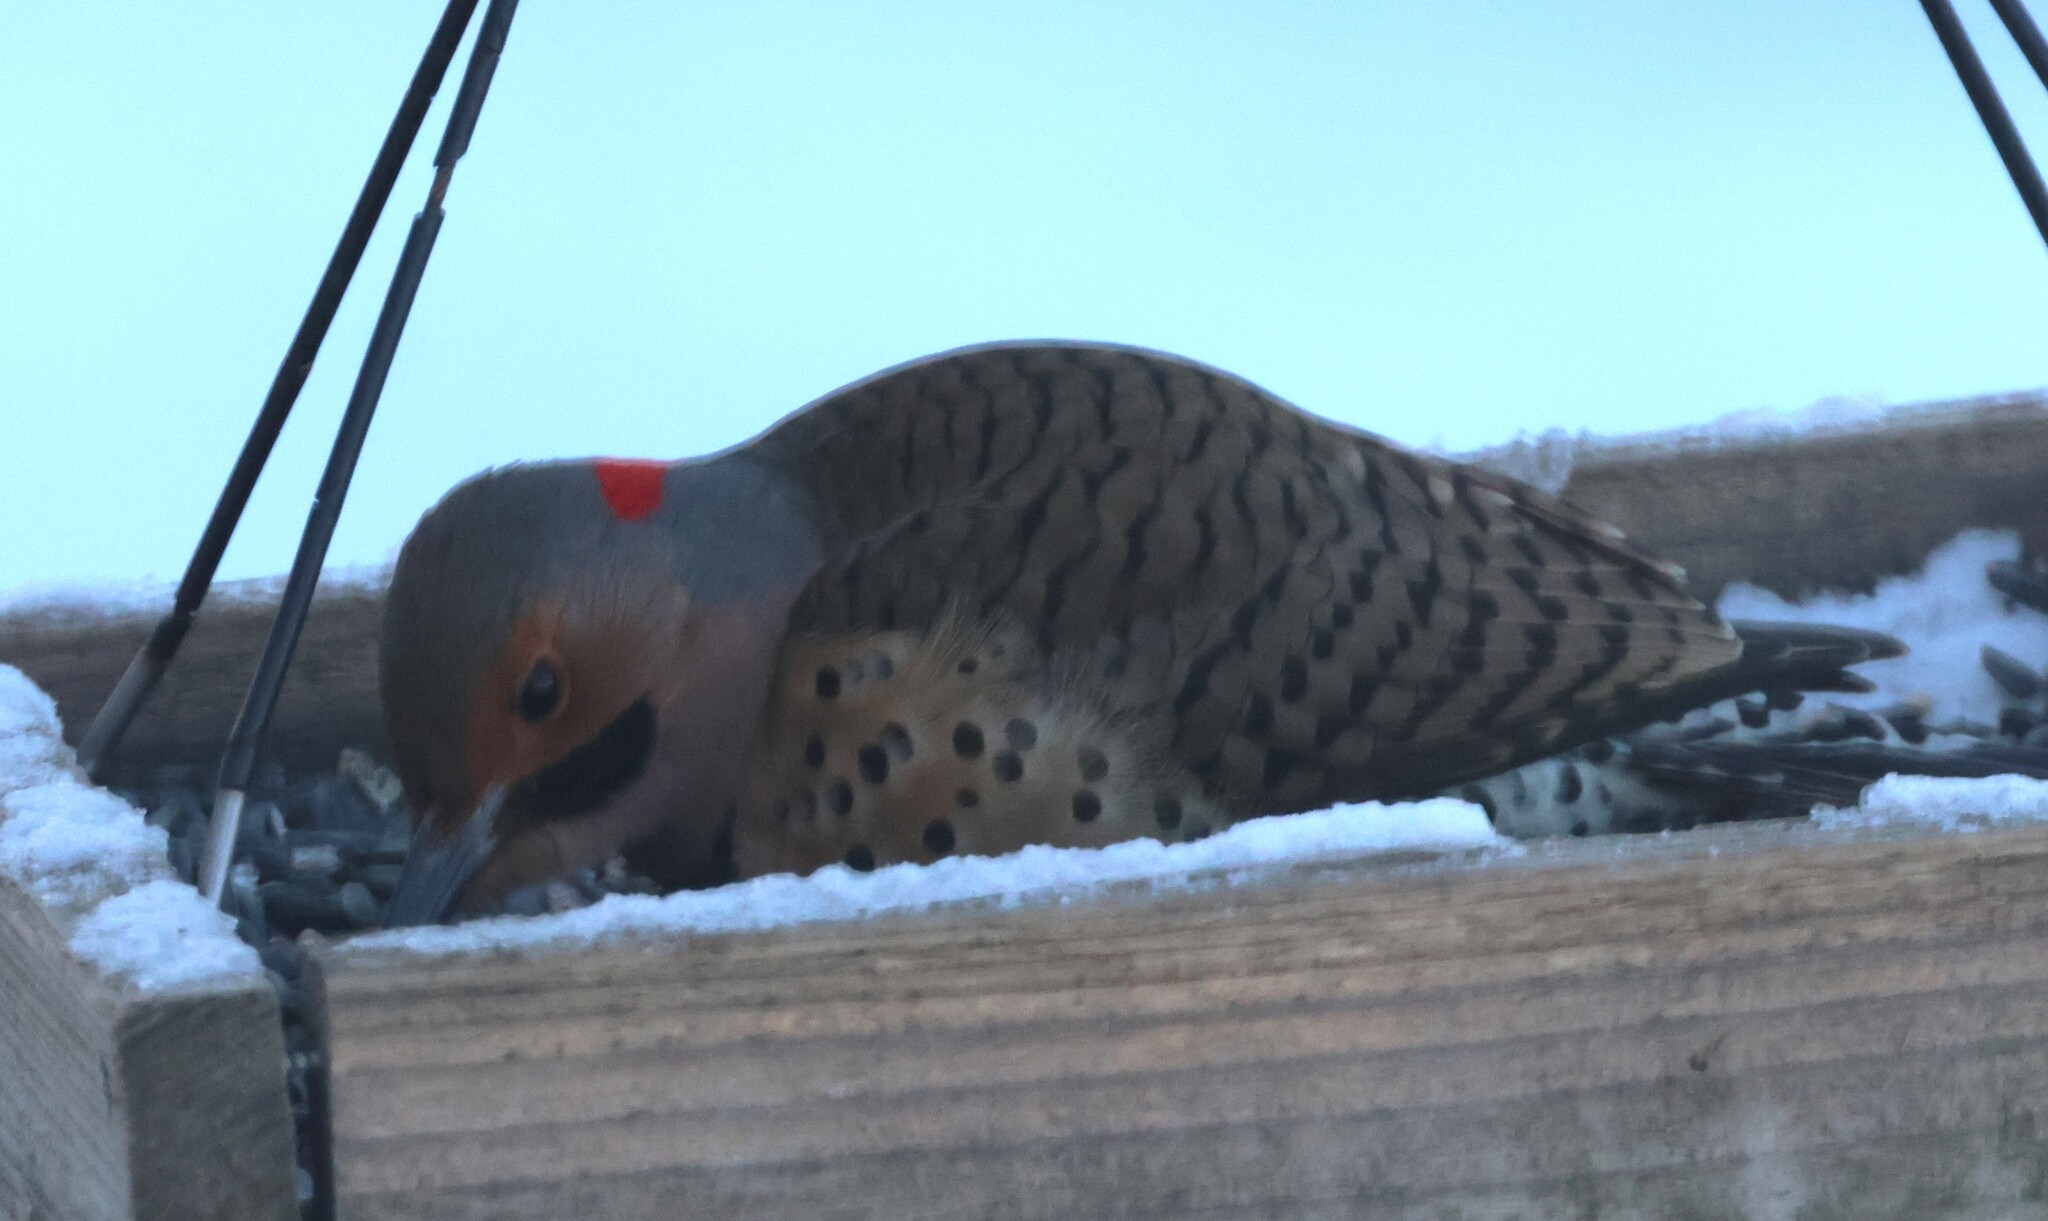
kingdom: Animalia
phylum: Chordata
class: Aves
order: Piciformes
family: Picidae
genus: Colaptes
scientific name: Colaptes auratus
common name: Northern flicker
